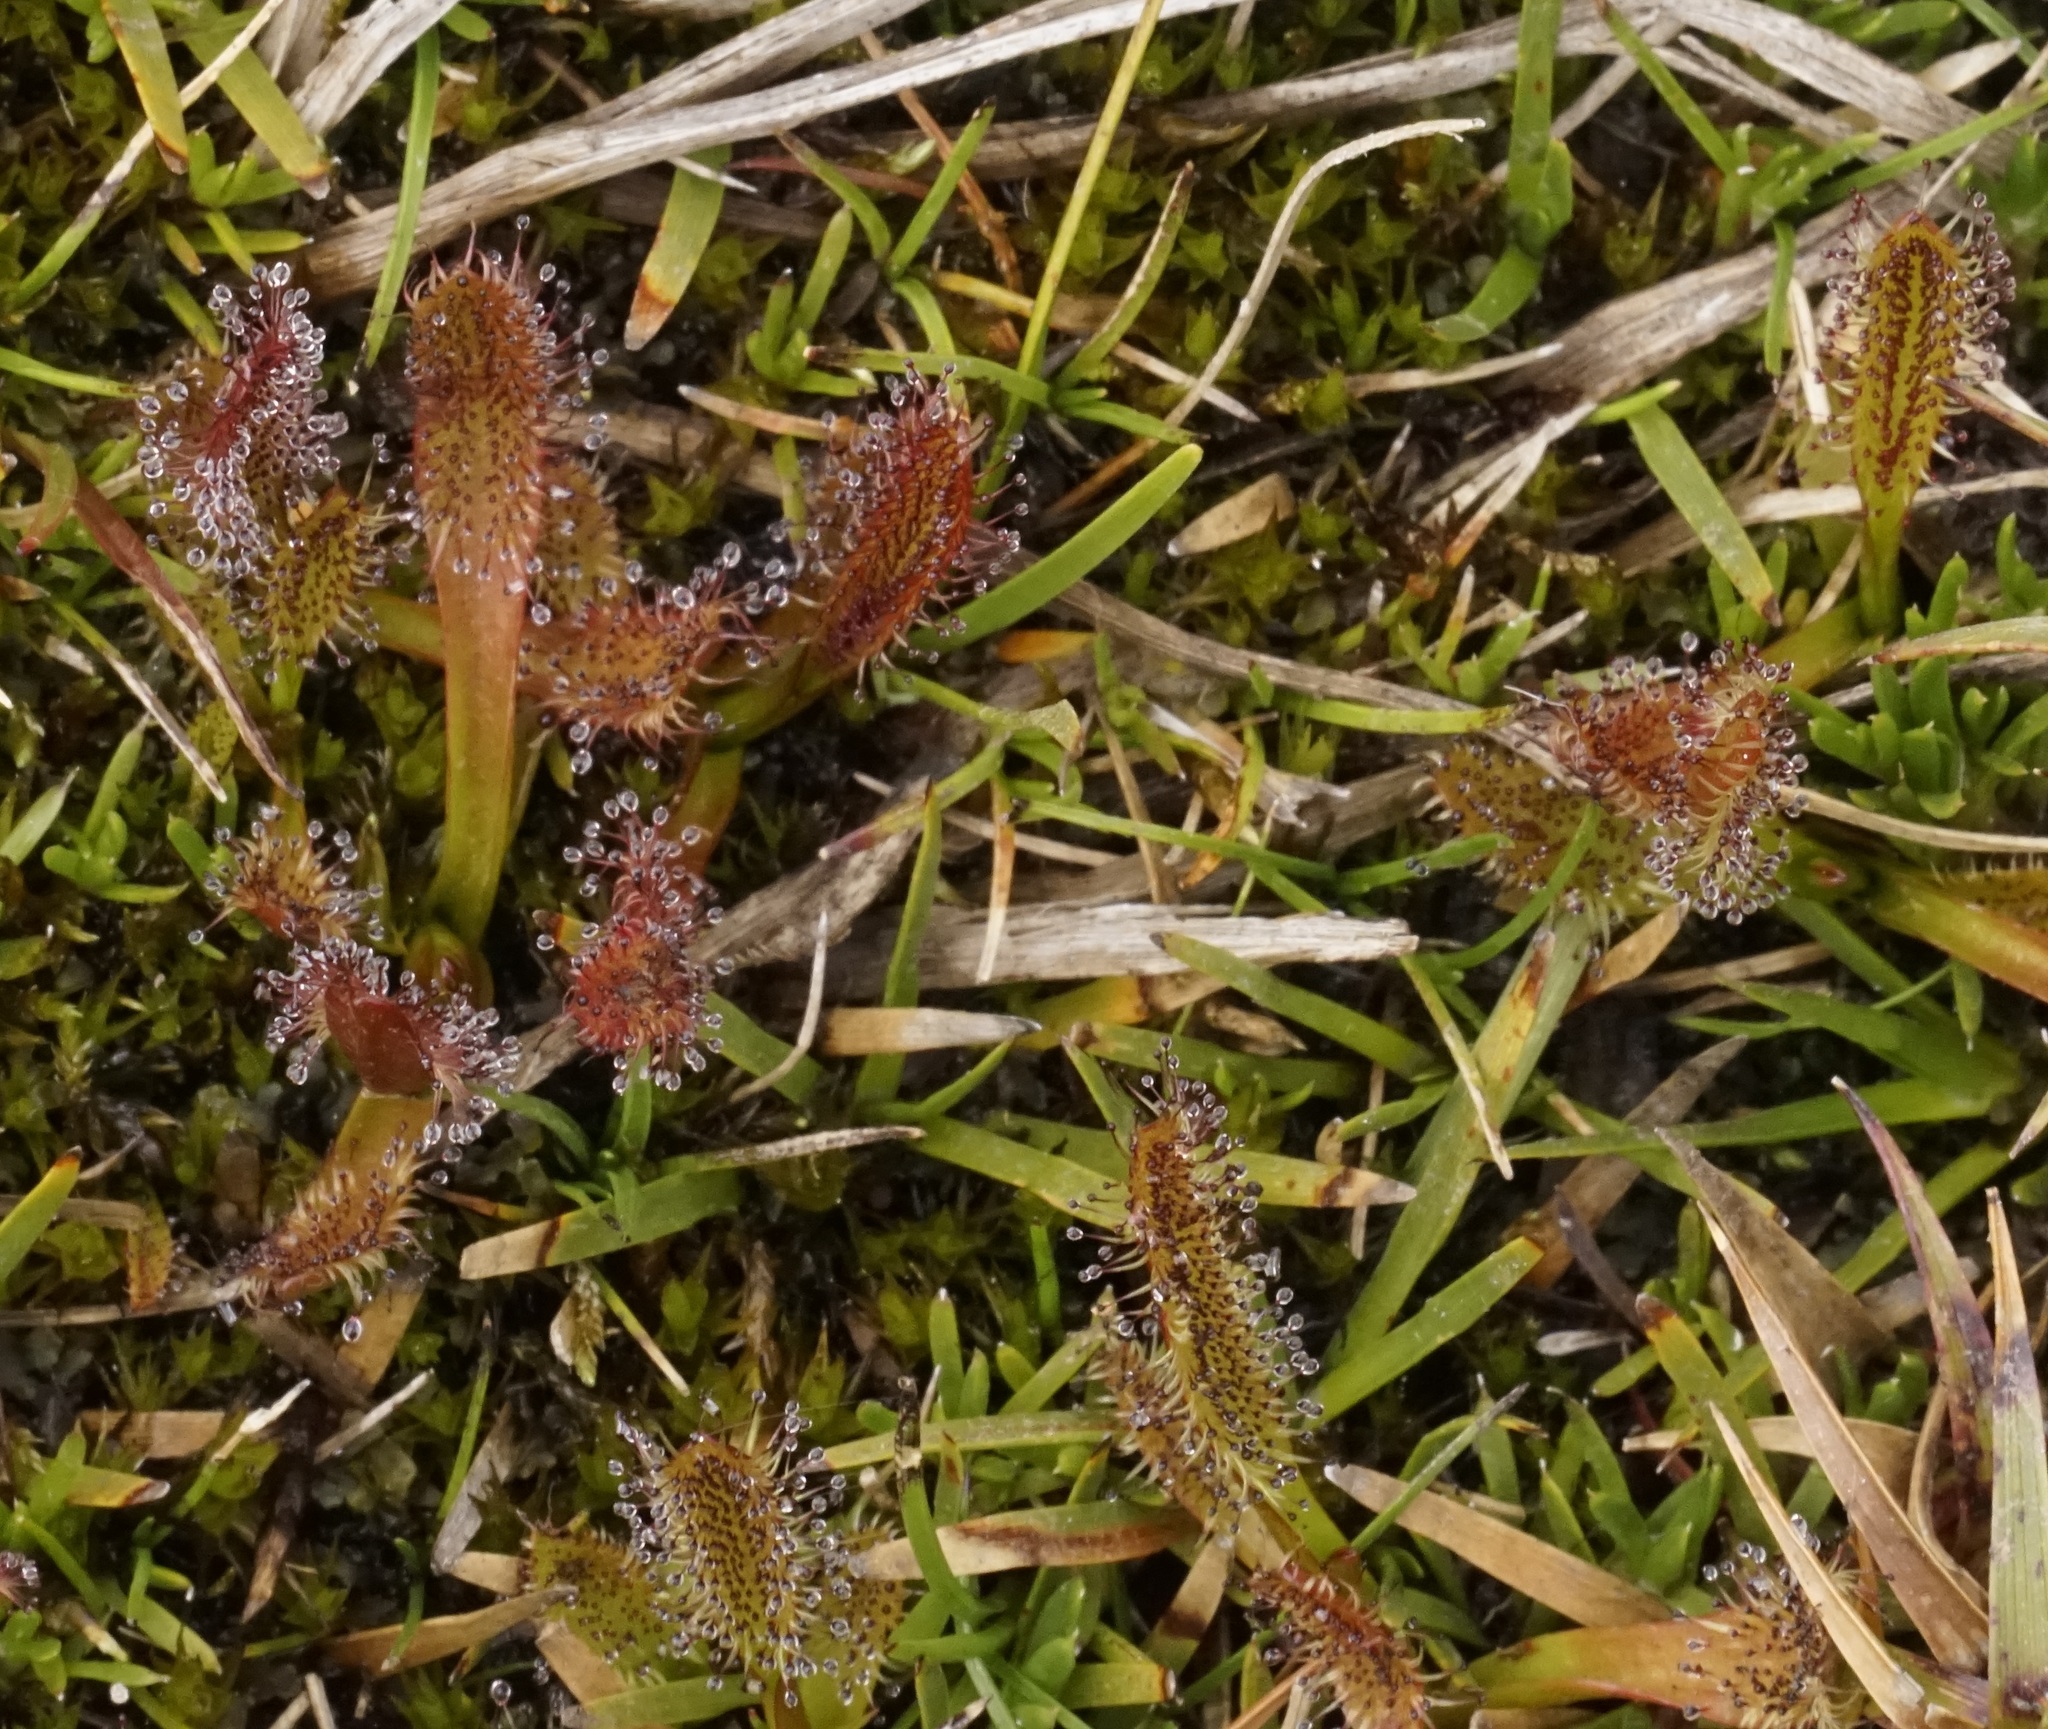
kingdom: Plantae
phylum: Tracheophyta
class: Magnoliopsida
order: Caryophyllales
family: Droseraceae
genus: Drosera
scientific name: Drosera arcturi
